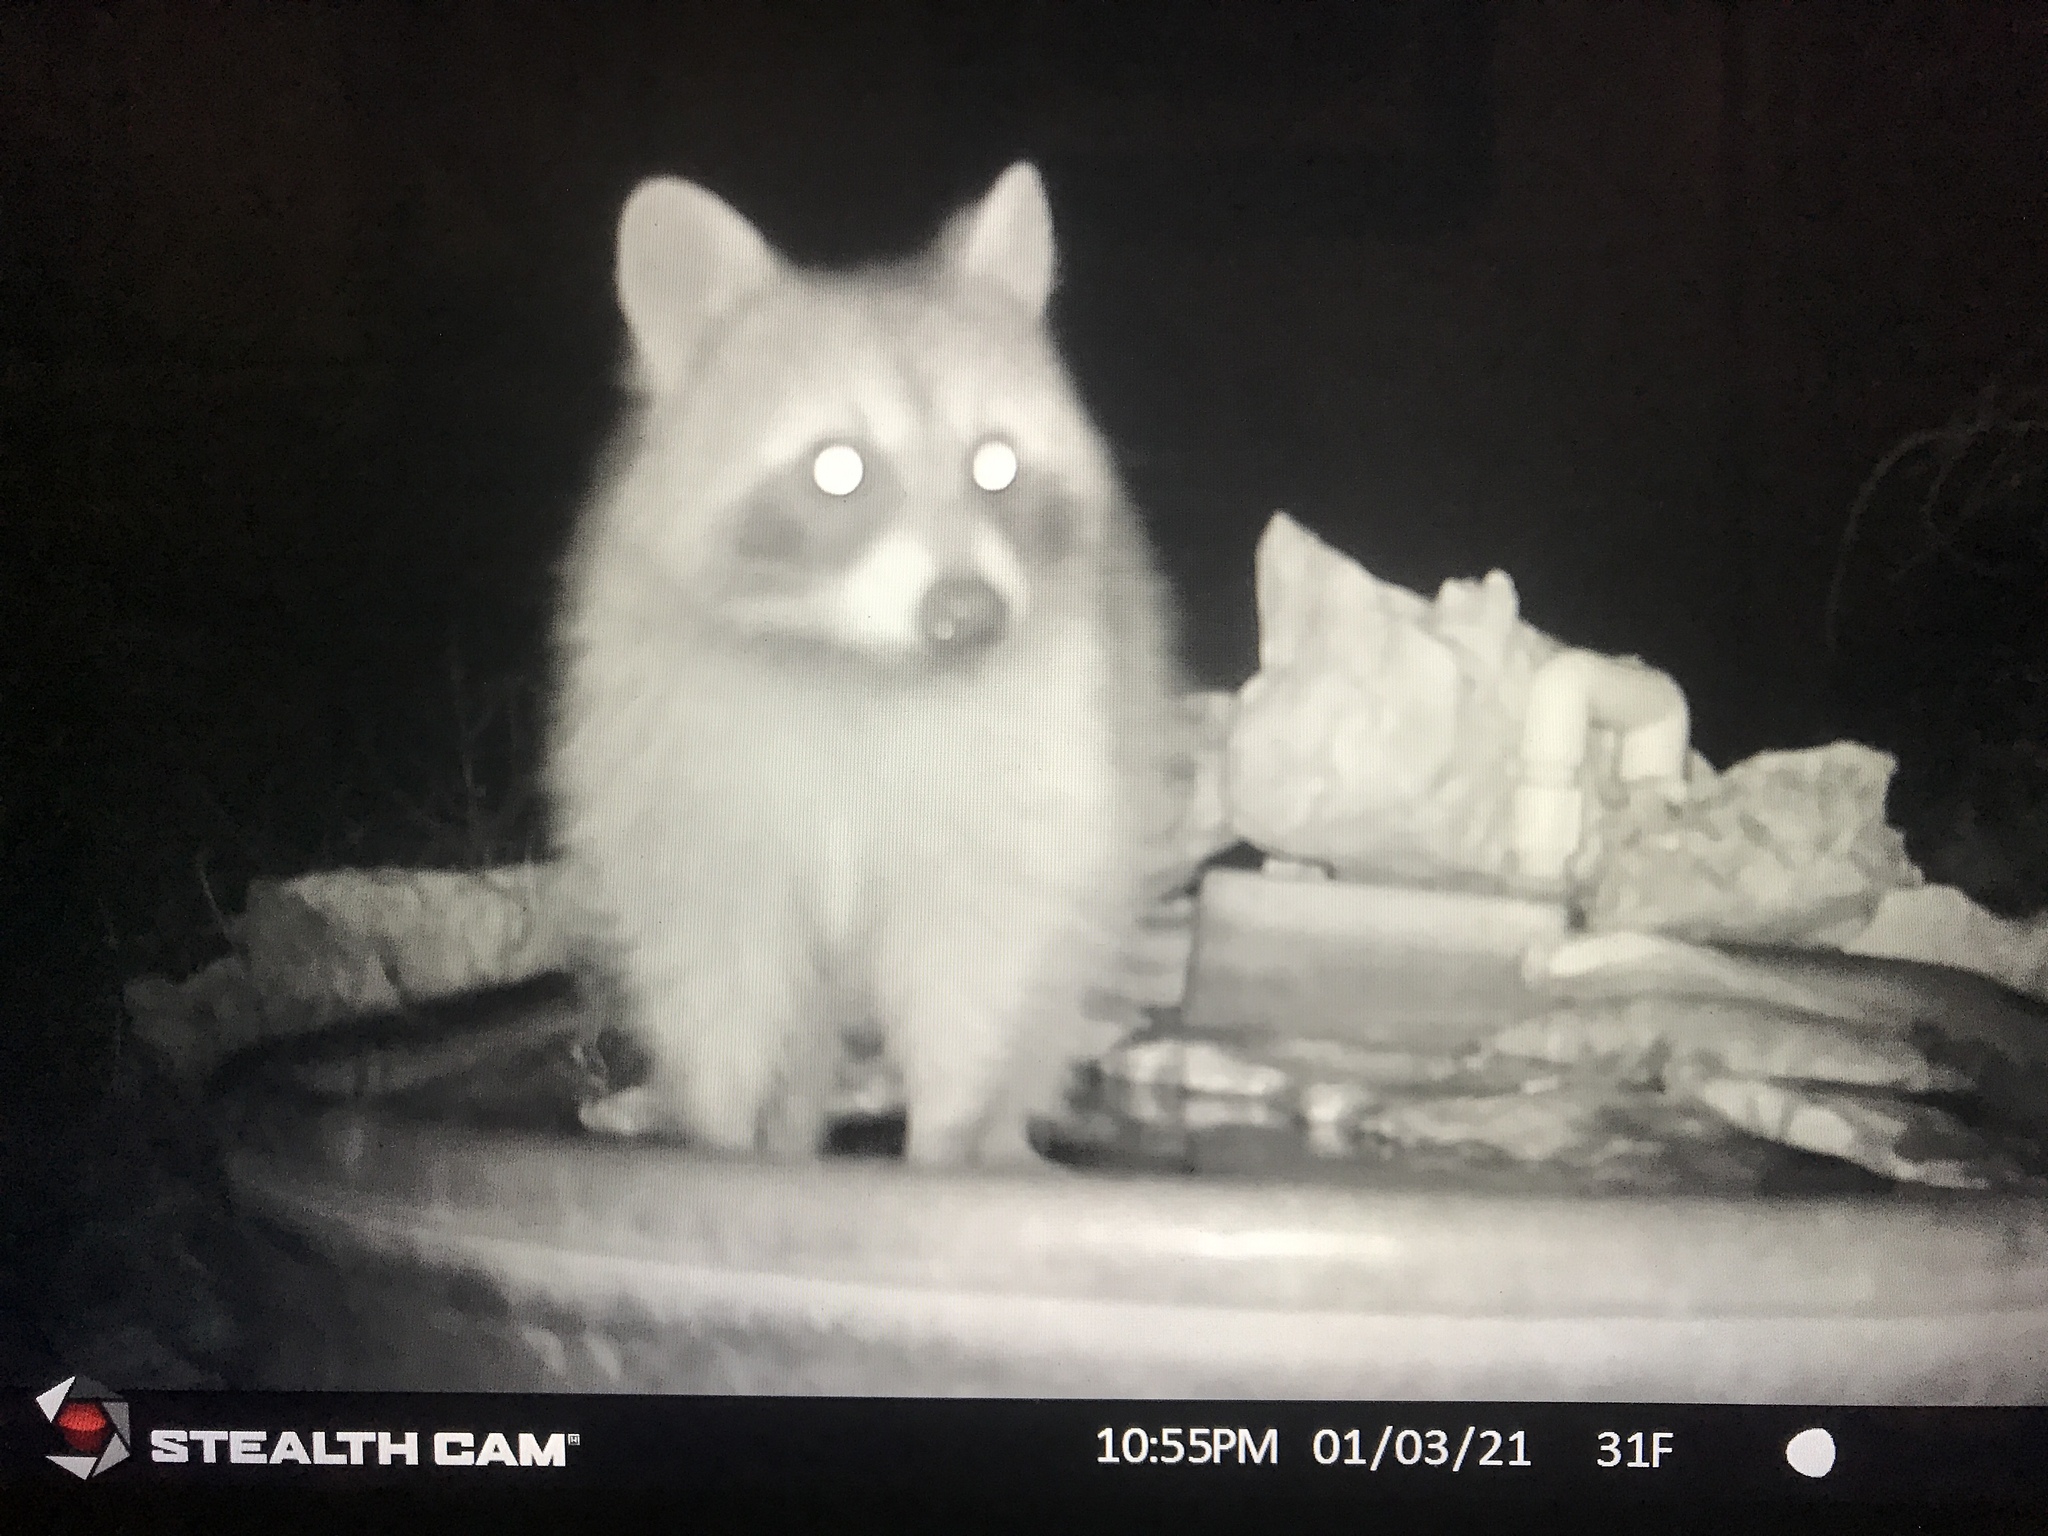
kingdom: Animalia
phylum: Chordata
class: Mammalia
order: Carnivora
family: Procyonidae
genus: Procyon
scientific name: Procyon lotor
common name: Raccoon
